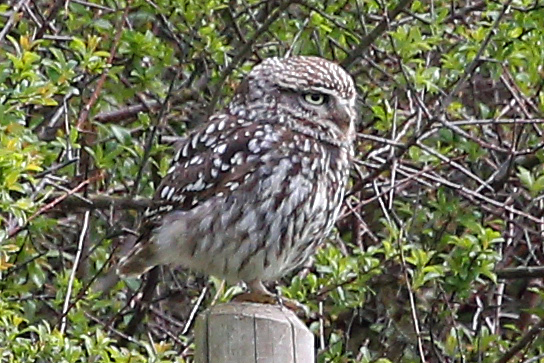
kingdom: Animalia
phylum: Chordata
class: Aves
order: Strigiformes
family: Strigidae
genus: Athene
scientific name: Athene noctua
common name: Little owl
